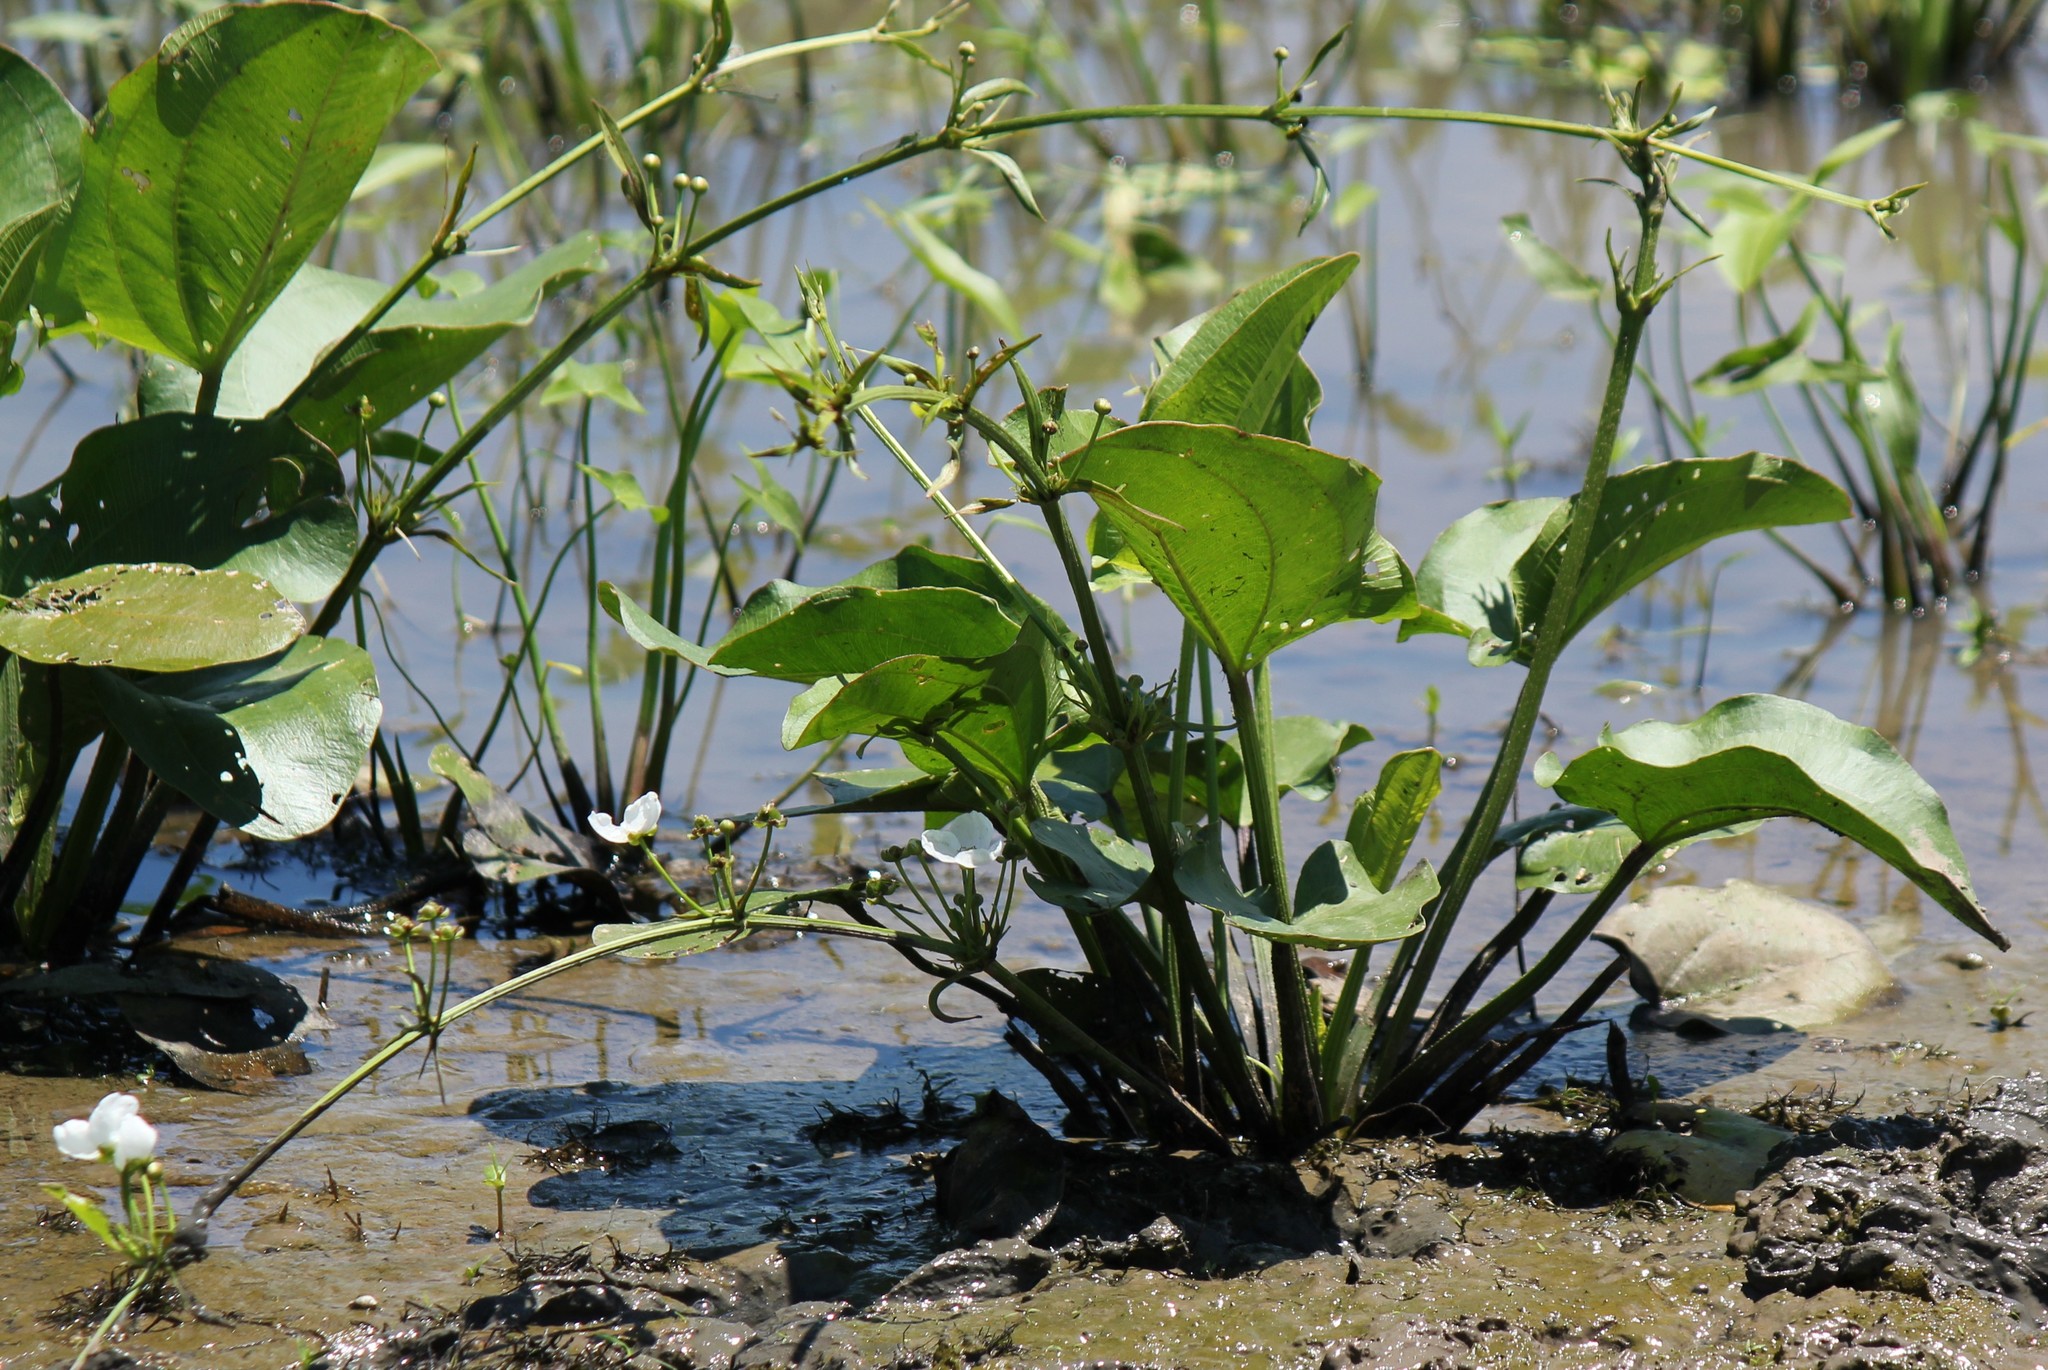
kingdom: Plantae
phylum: Tracheophyta
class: Liliopsida
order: Alismatales
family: Alismataceae
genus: Aquarius
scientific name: Aquarius cordifolius
